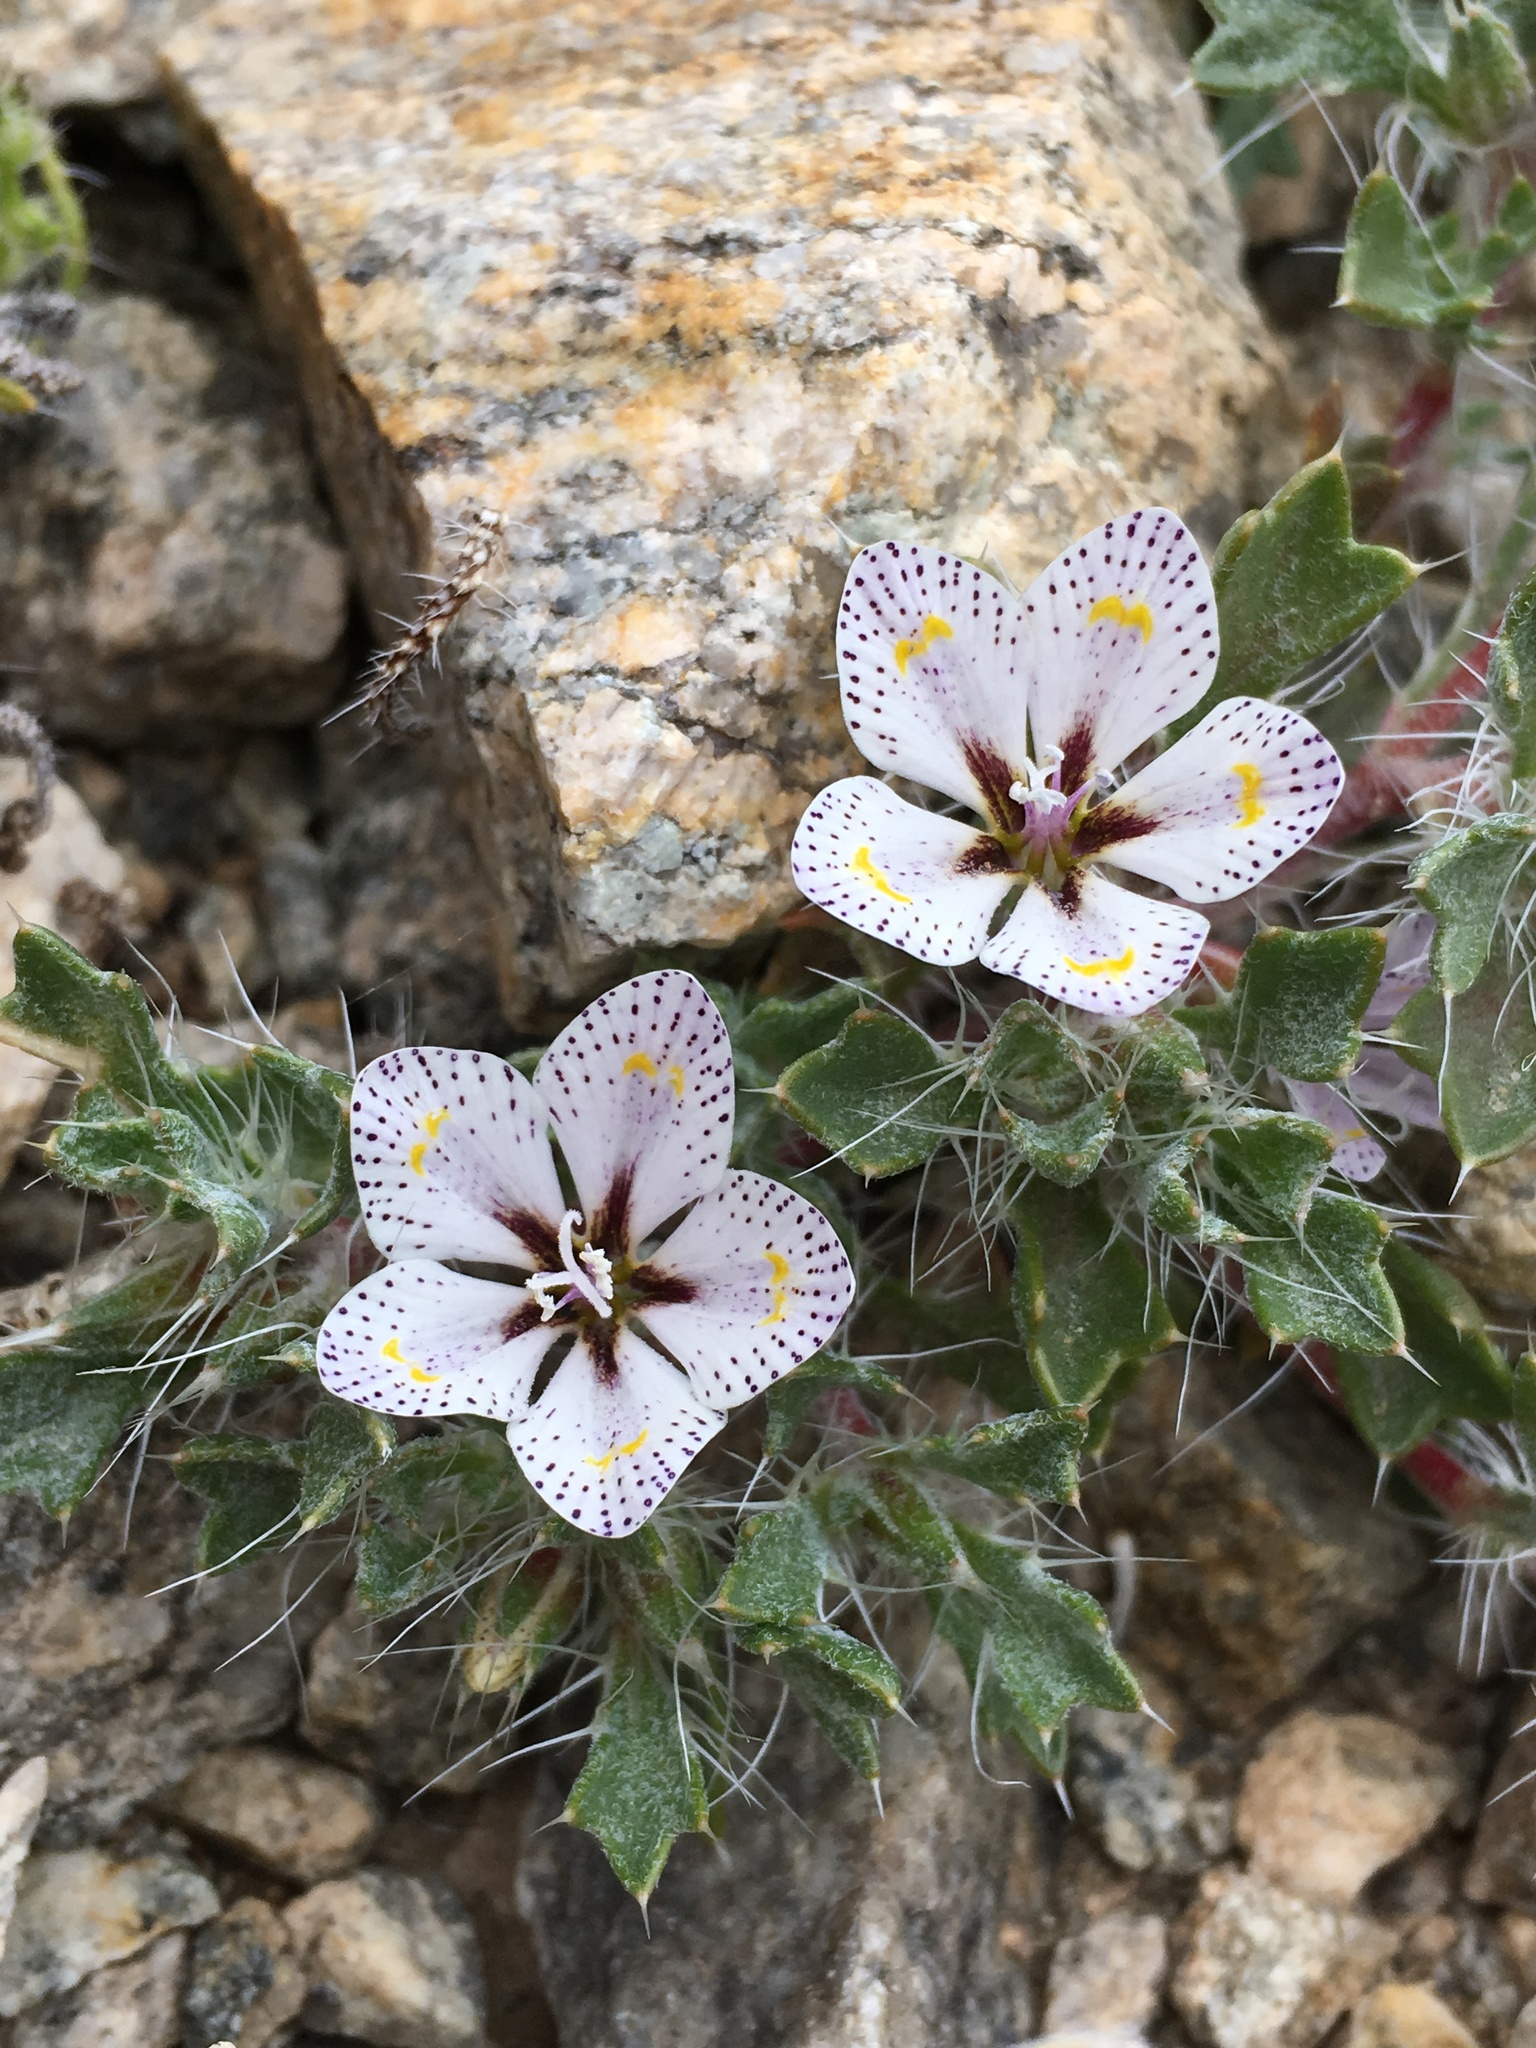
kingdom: Plantae
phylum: Tracheophyta
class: Magnoliopsida
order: Ericales
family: Polemoniaceae
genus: Langloisia
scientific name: Langloisia setosissima
